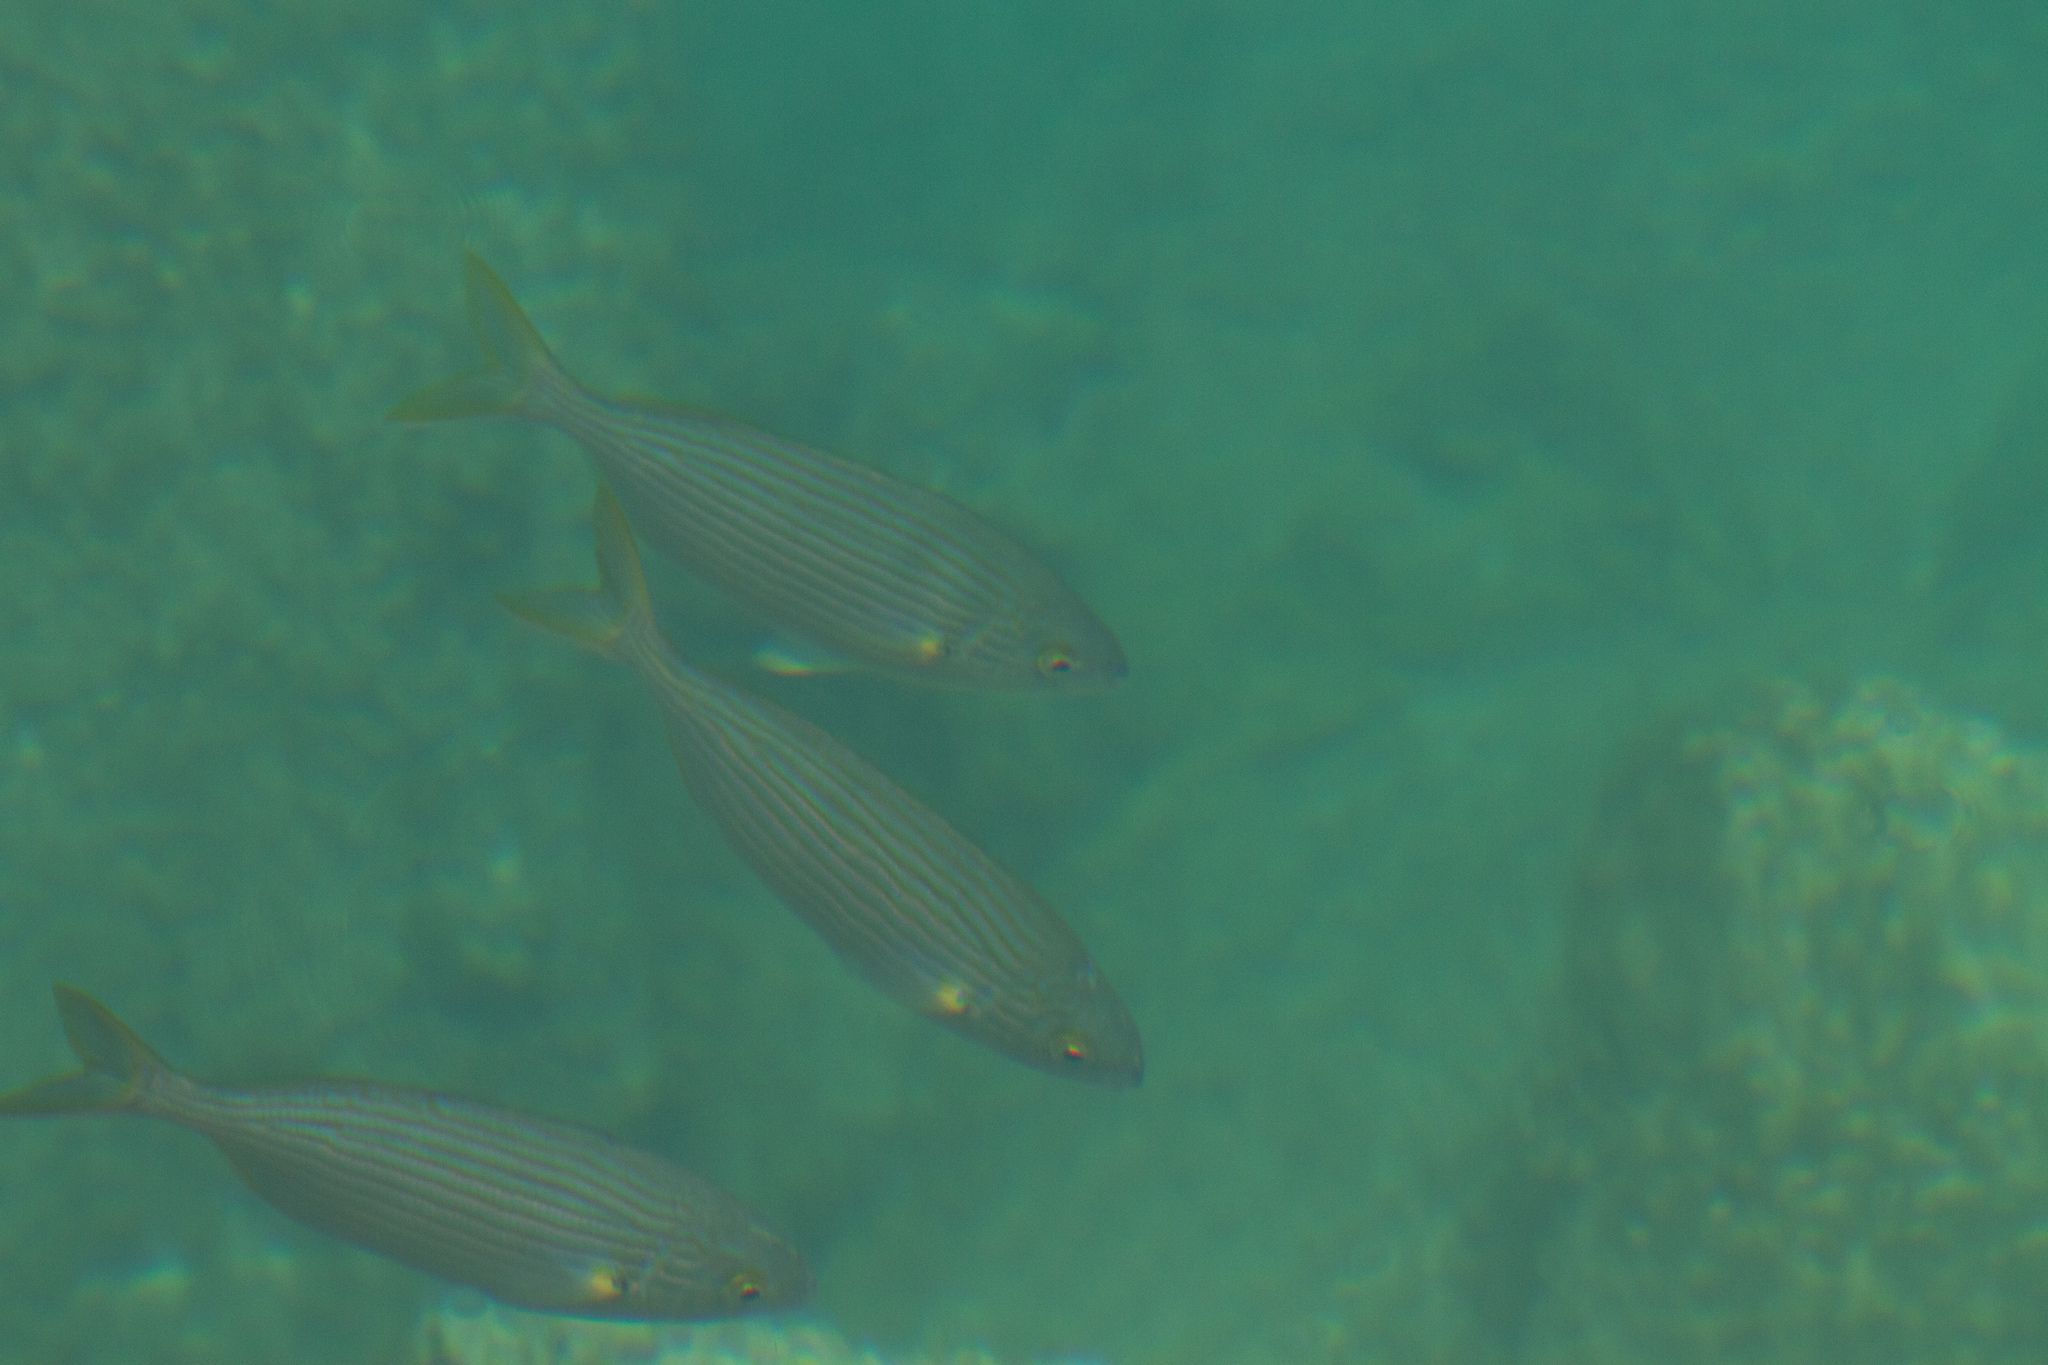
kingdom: Animalia
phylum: Chordata
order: Perciformes
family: Sparidae
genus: Sarpa
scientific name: Sarpa salpa
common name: Salema
